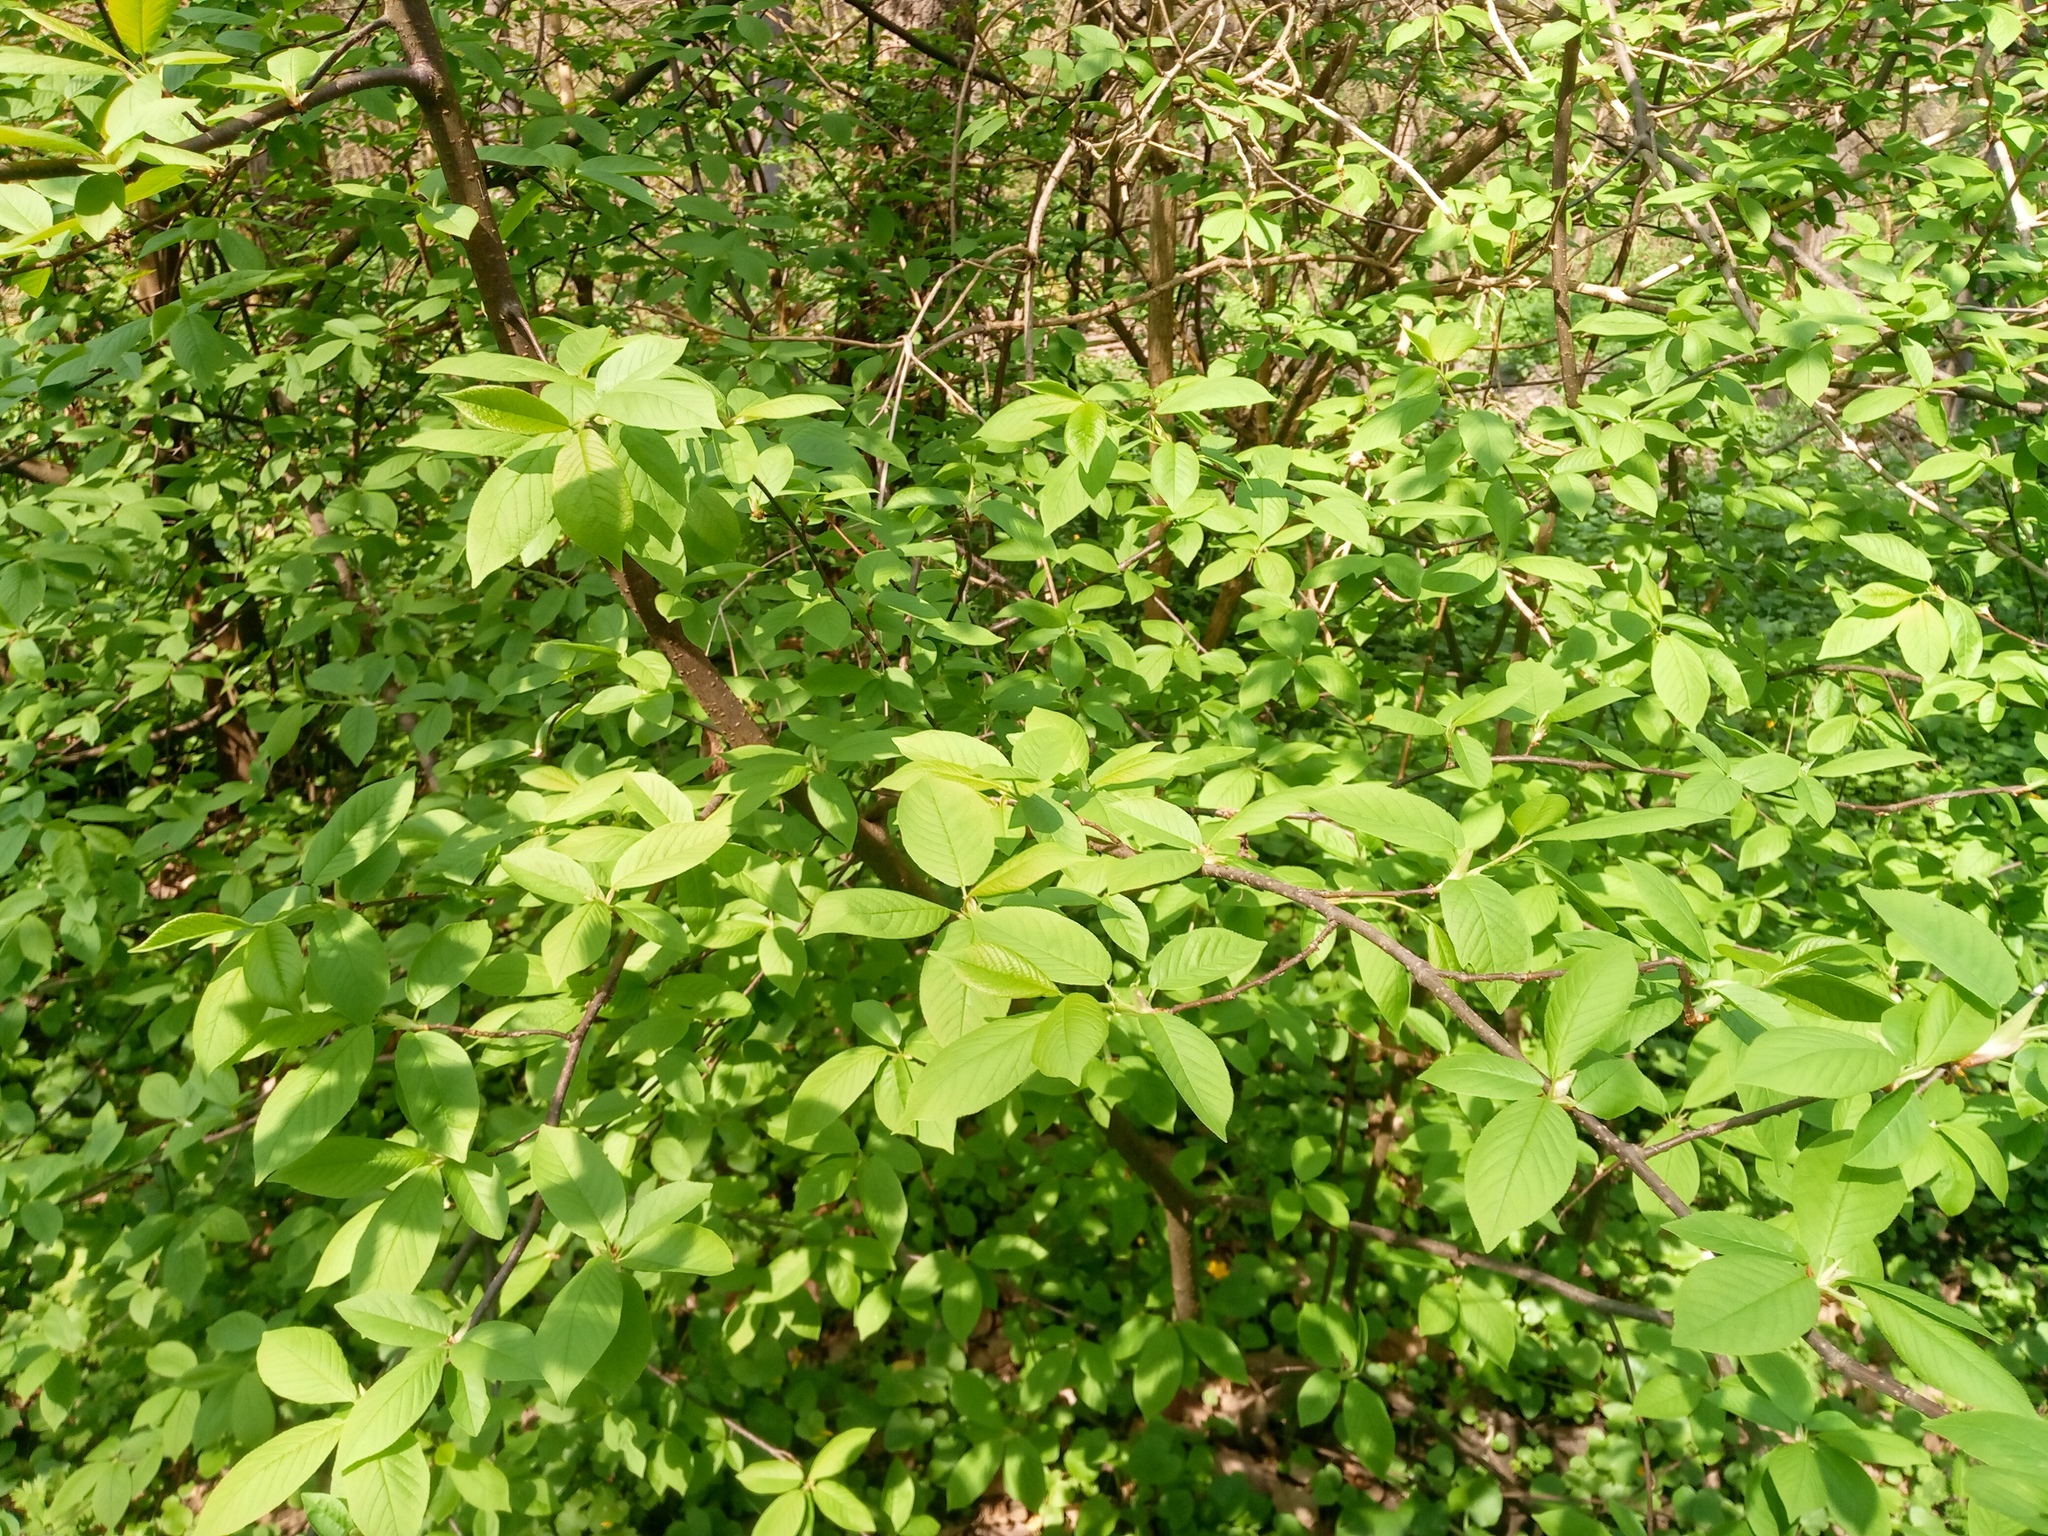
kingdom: Plantae
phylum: Tracheophyta
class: Magnoliopsida
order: Rosales
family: Rosaceae
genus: Prunus
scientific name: Prunus padus
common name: Bird cherry
